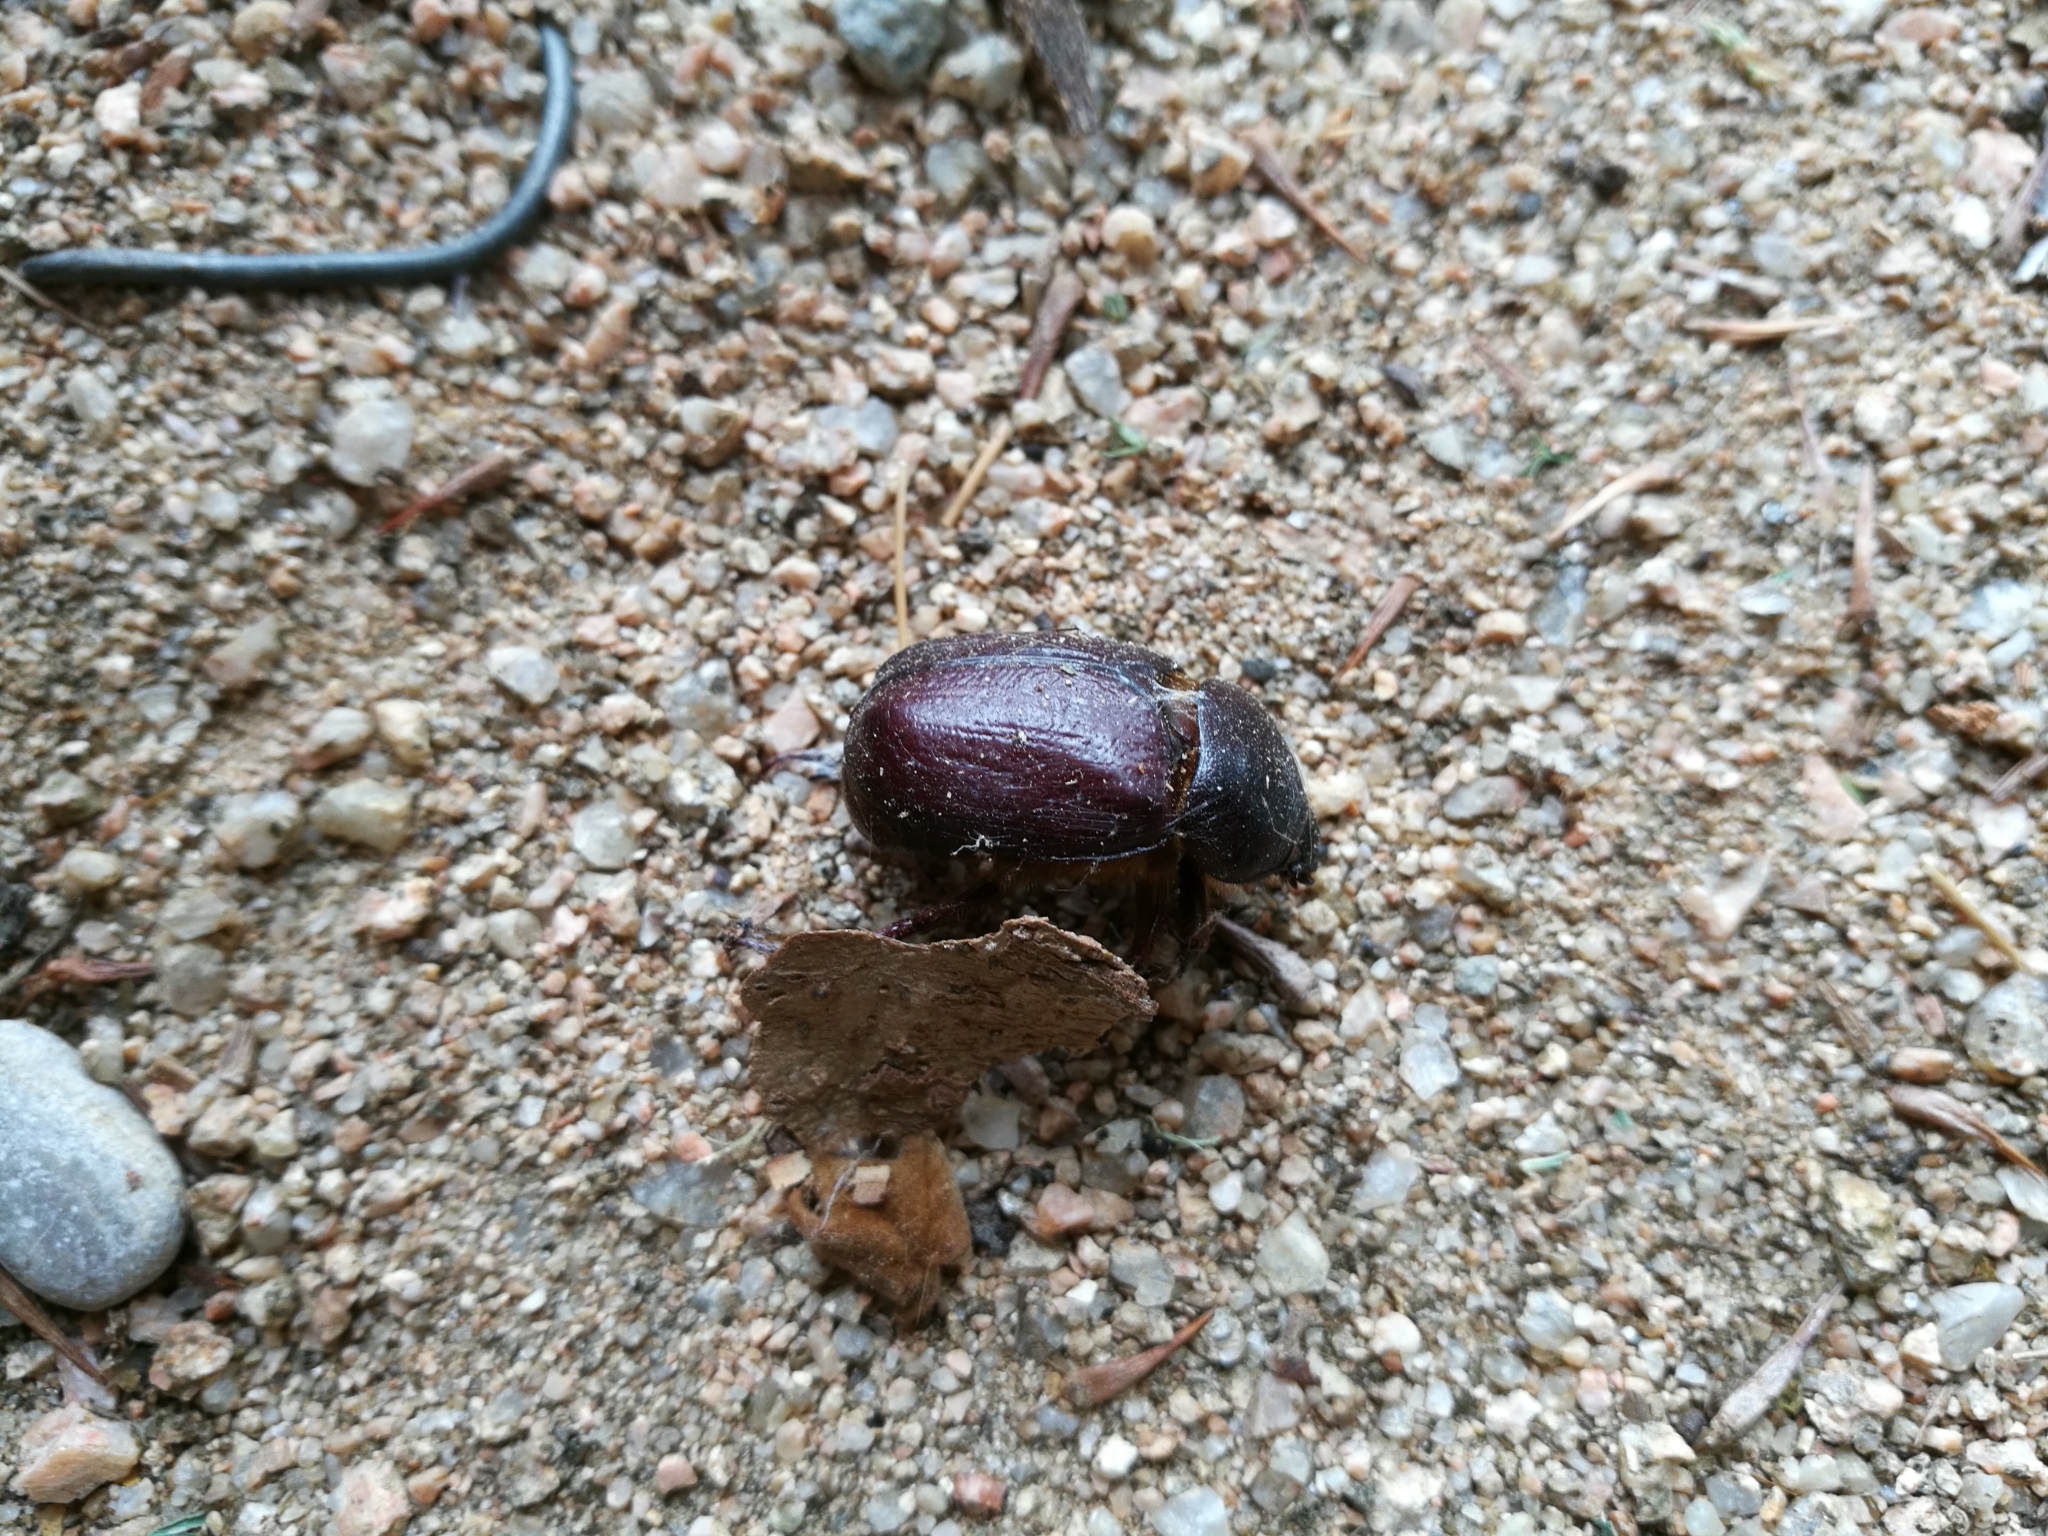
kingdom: Animalia
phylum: Arthropoda
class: Insecta
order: Coleoptera
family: Scarabaeidae
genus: Phyllognathus
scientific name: Phyllognathus excavatus
